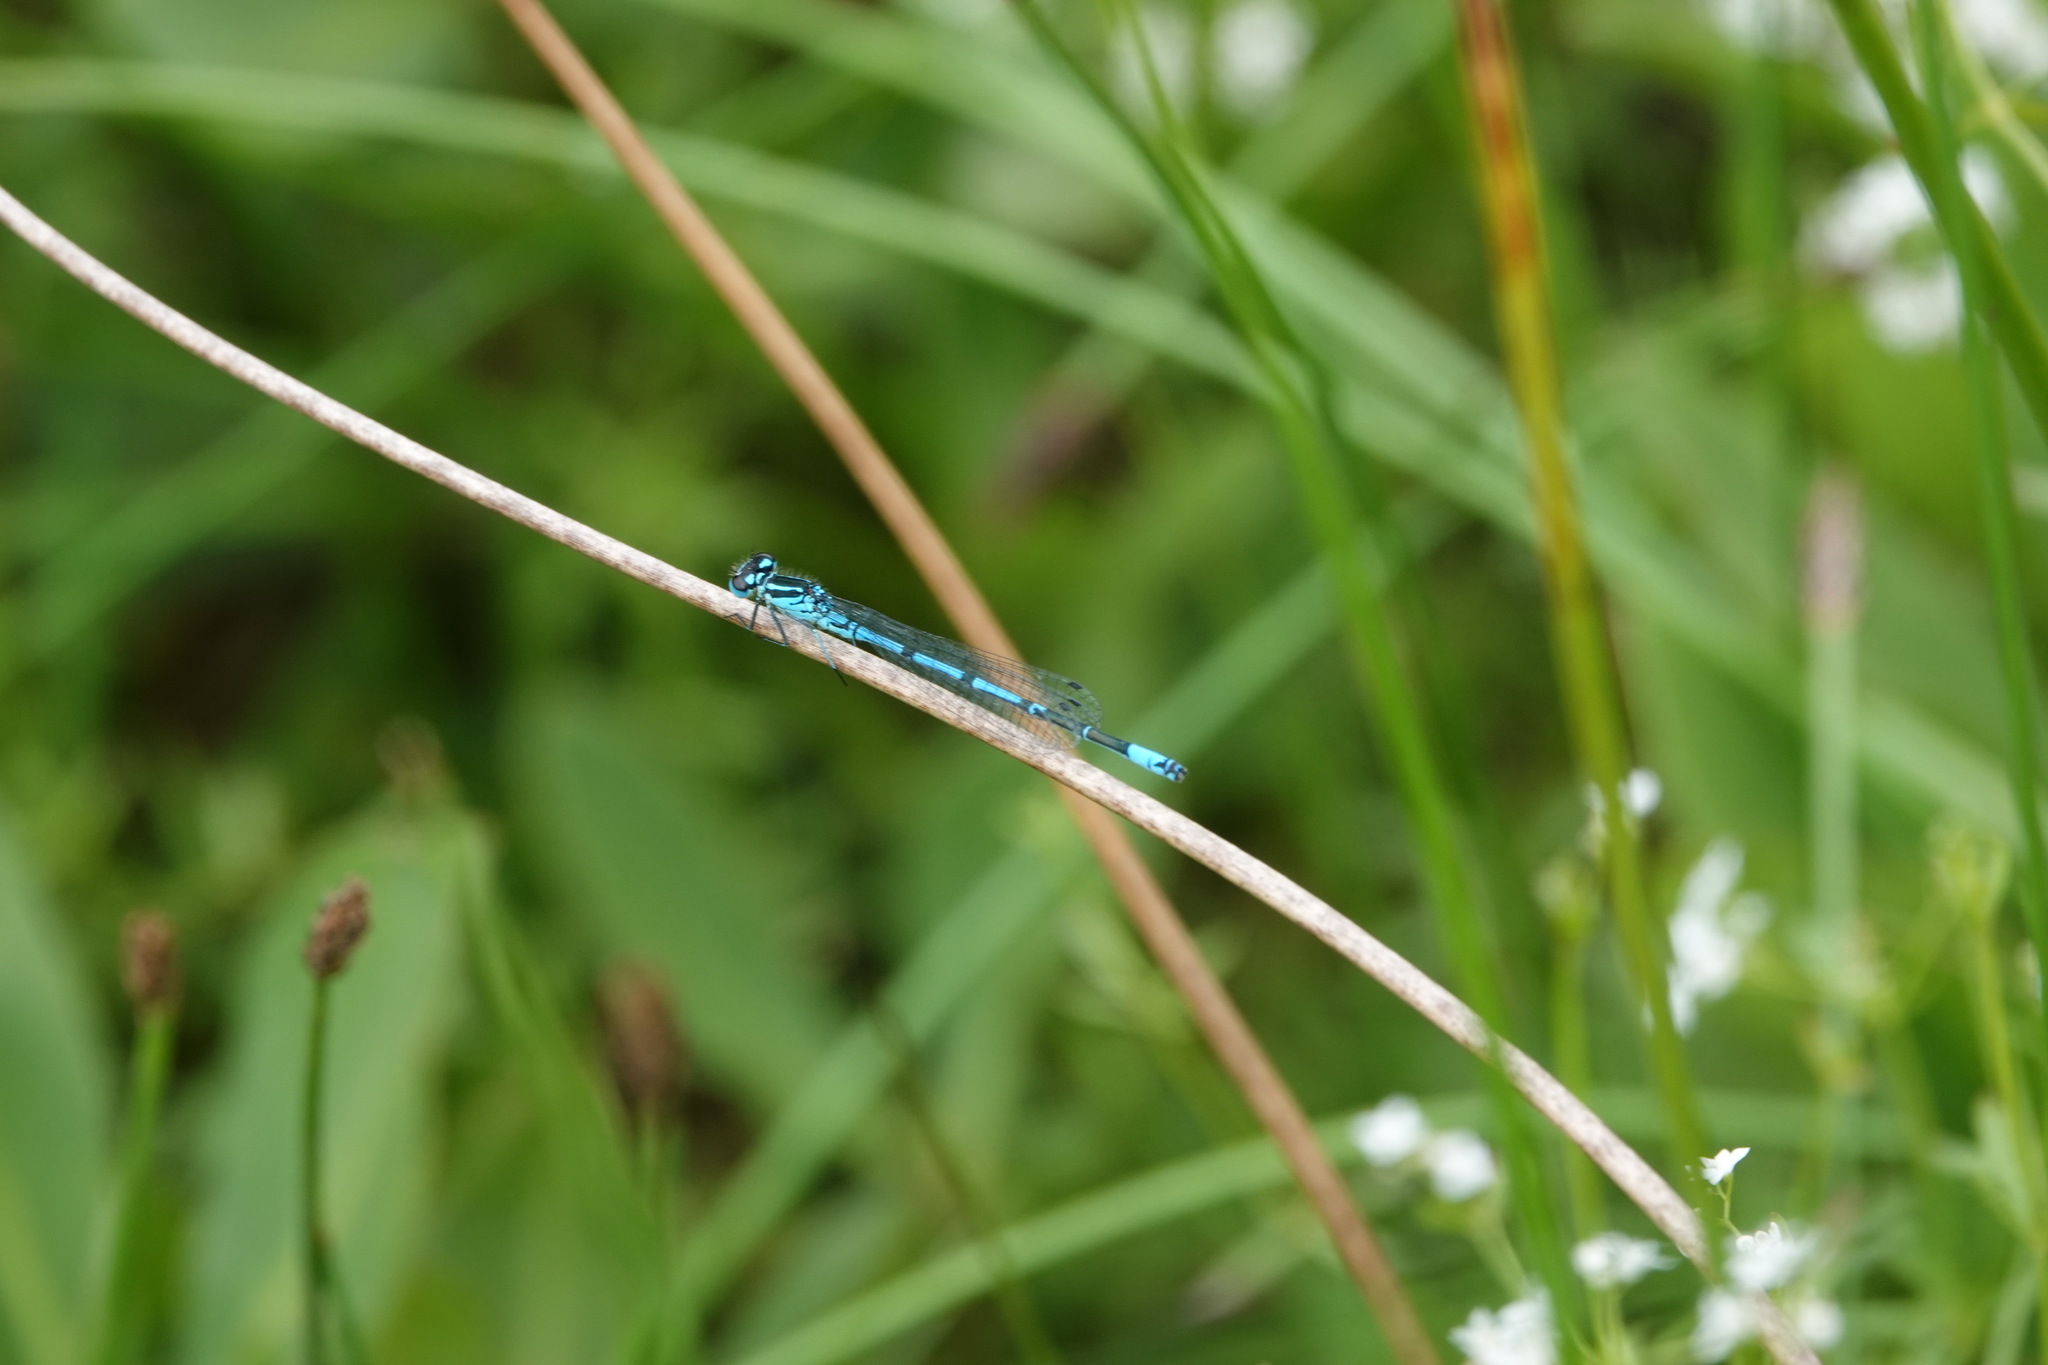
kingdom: Animalia
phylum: Arthropoda
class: Insecta
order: Odonata
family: Coenagrionidae
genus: Coenagrion
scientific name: Coenagrion puella
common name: Azure damselfly
